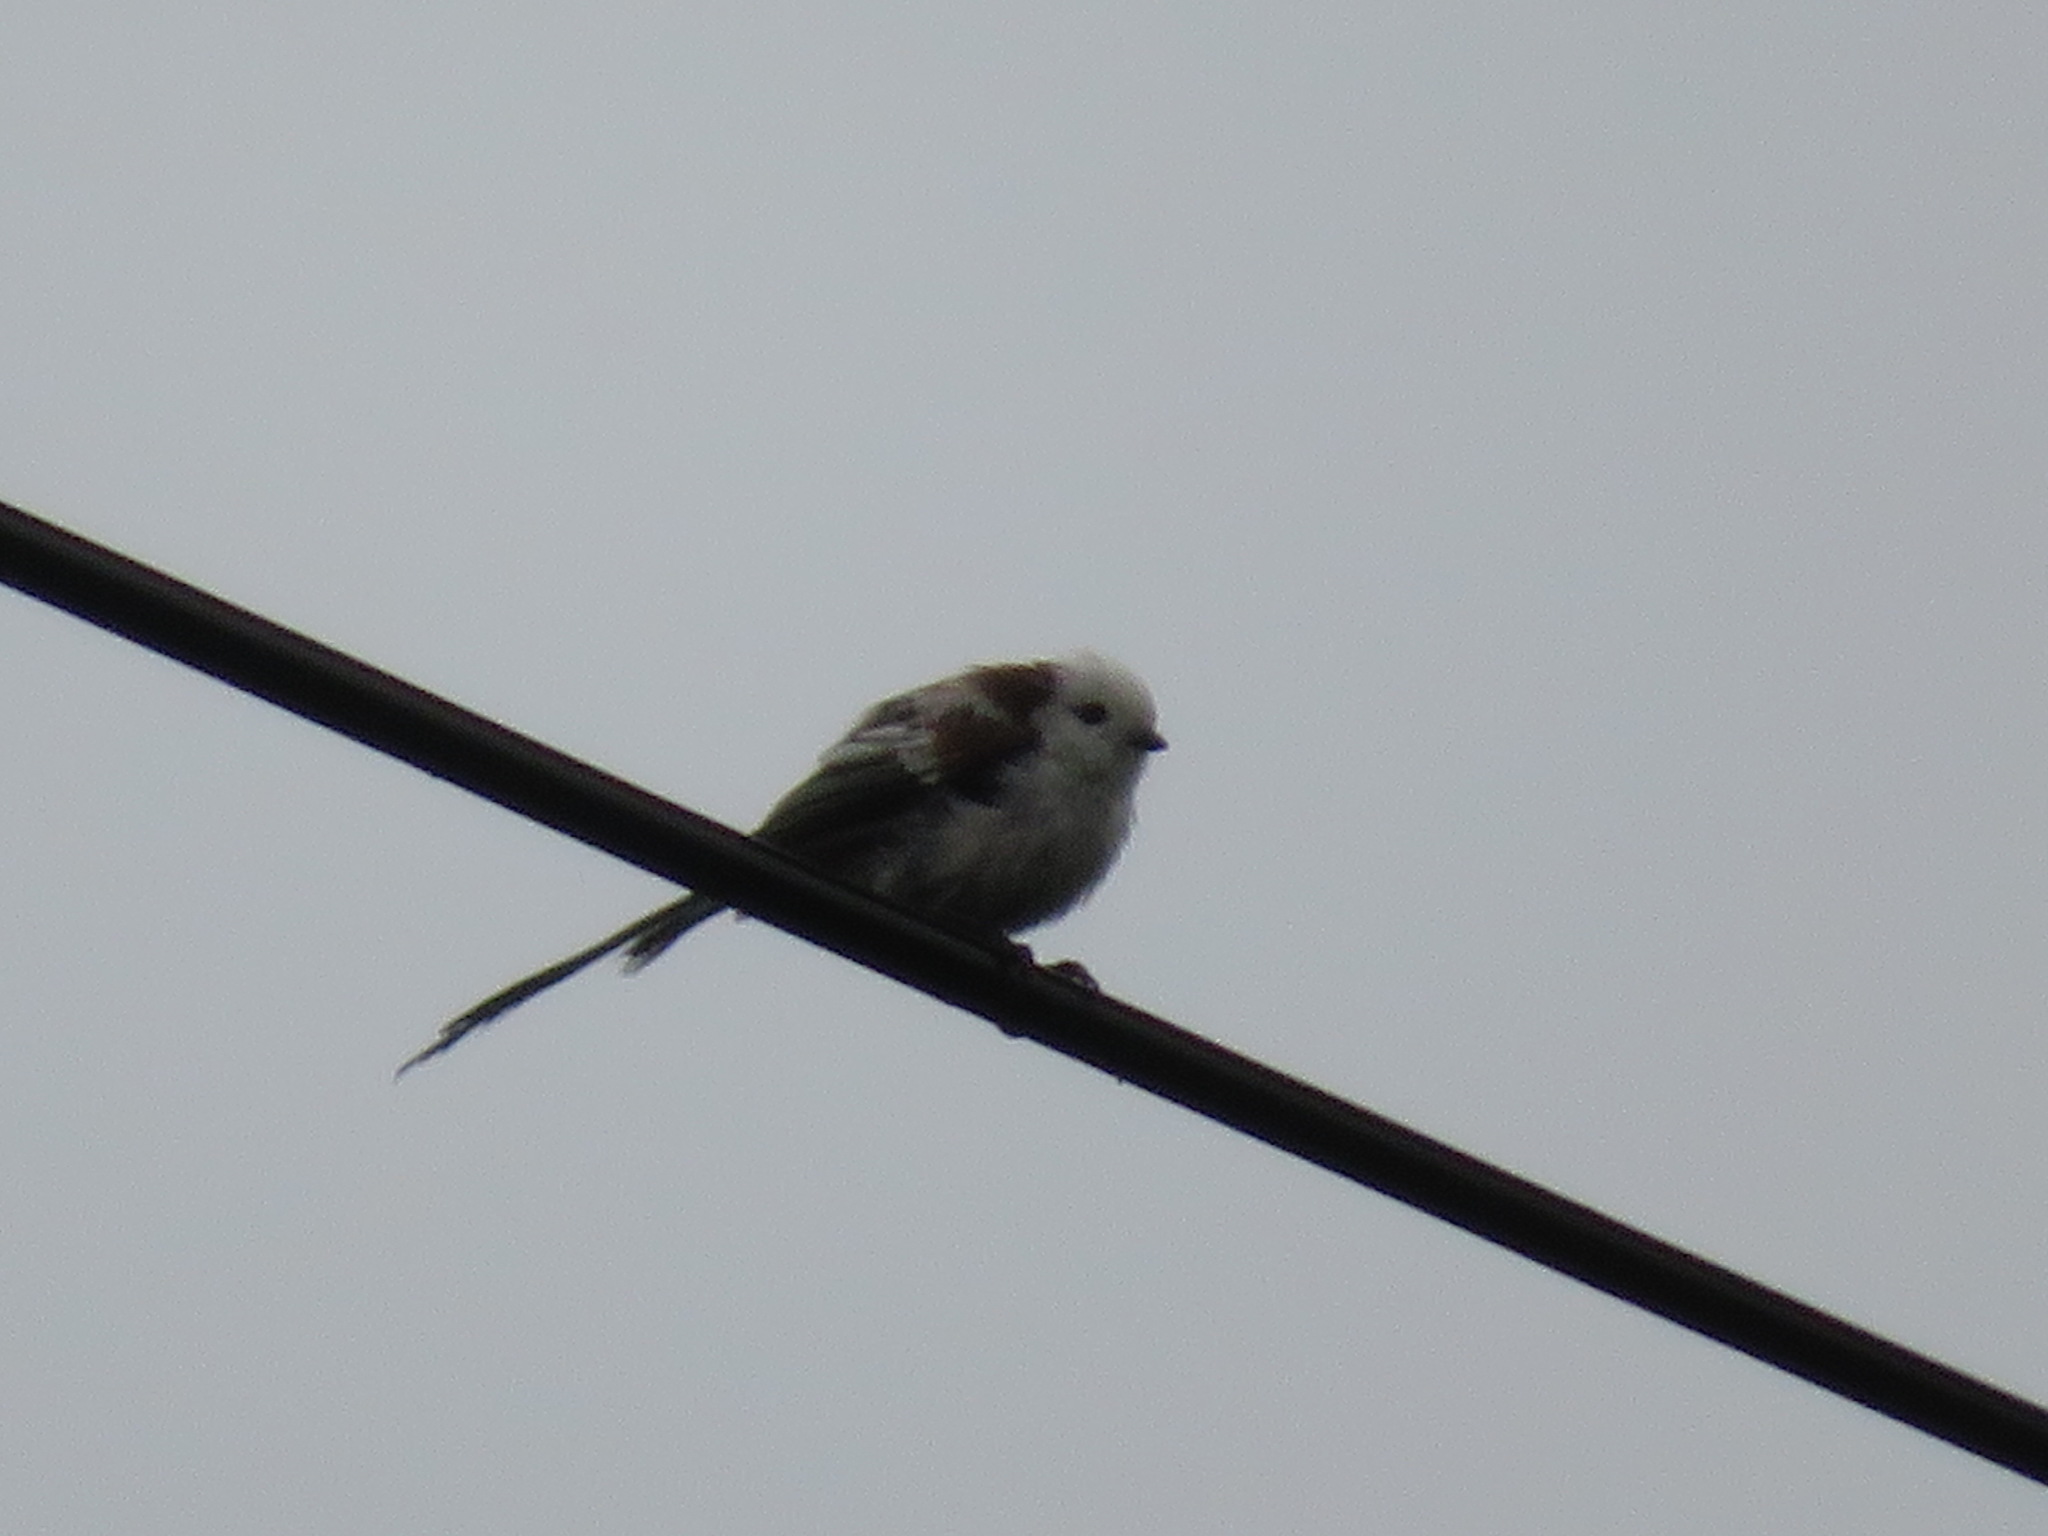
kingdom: Animalia
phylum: Chordata
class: Aves
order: Passeriformes
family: Aegithalidae
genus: Aegithalos
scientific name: Aegithalos caudatus
